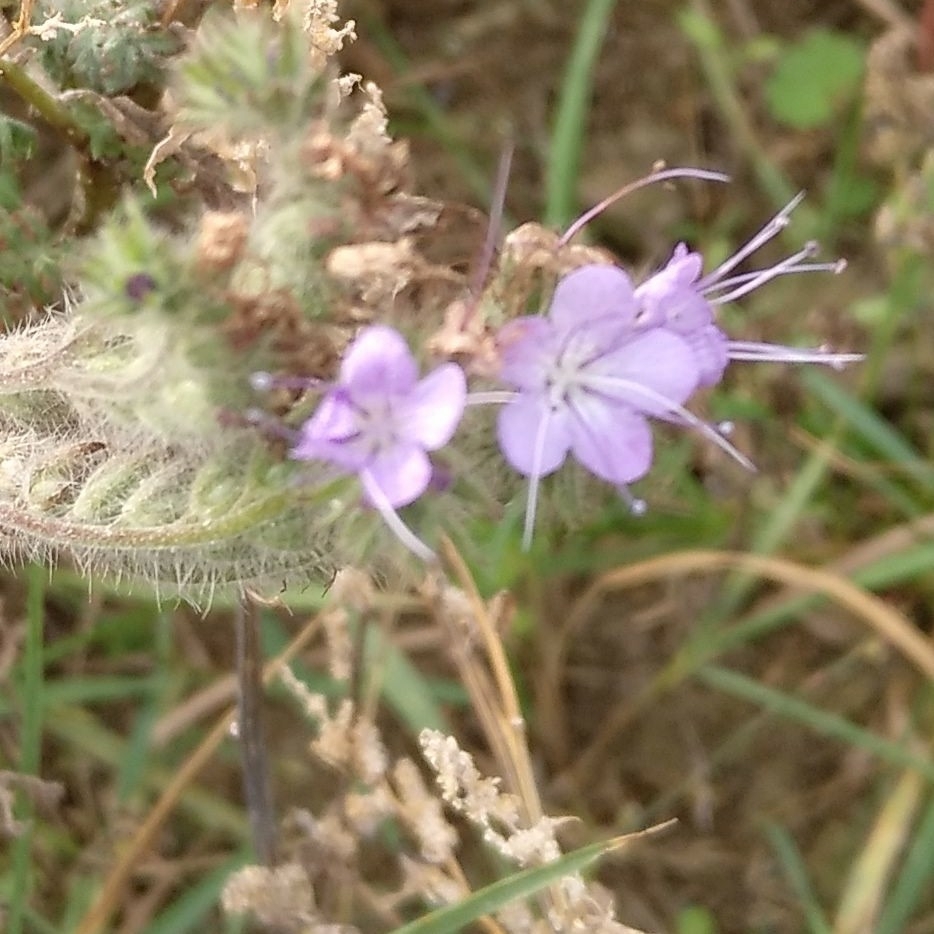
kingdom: Plantae
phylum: Tracheophyta
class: Magnoliopsida
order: Boraginales
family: Hydrophyllaceae
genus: Phacelia
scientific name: Phacelia tanacetifolia
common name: Phacelia
